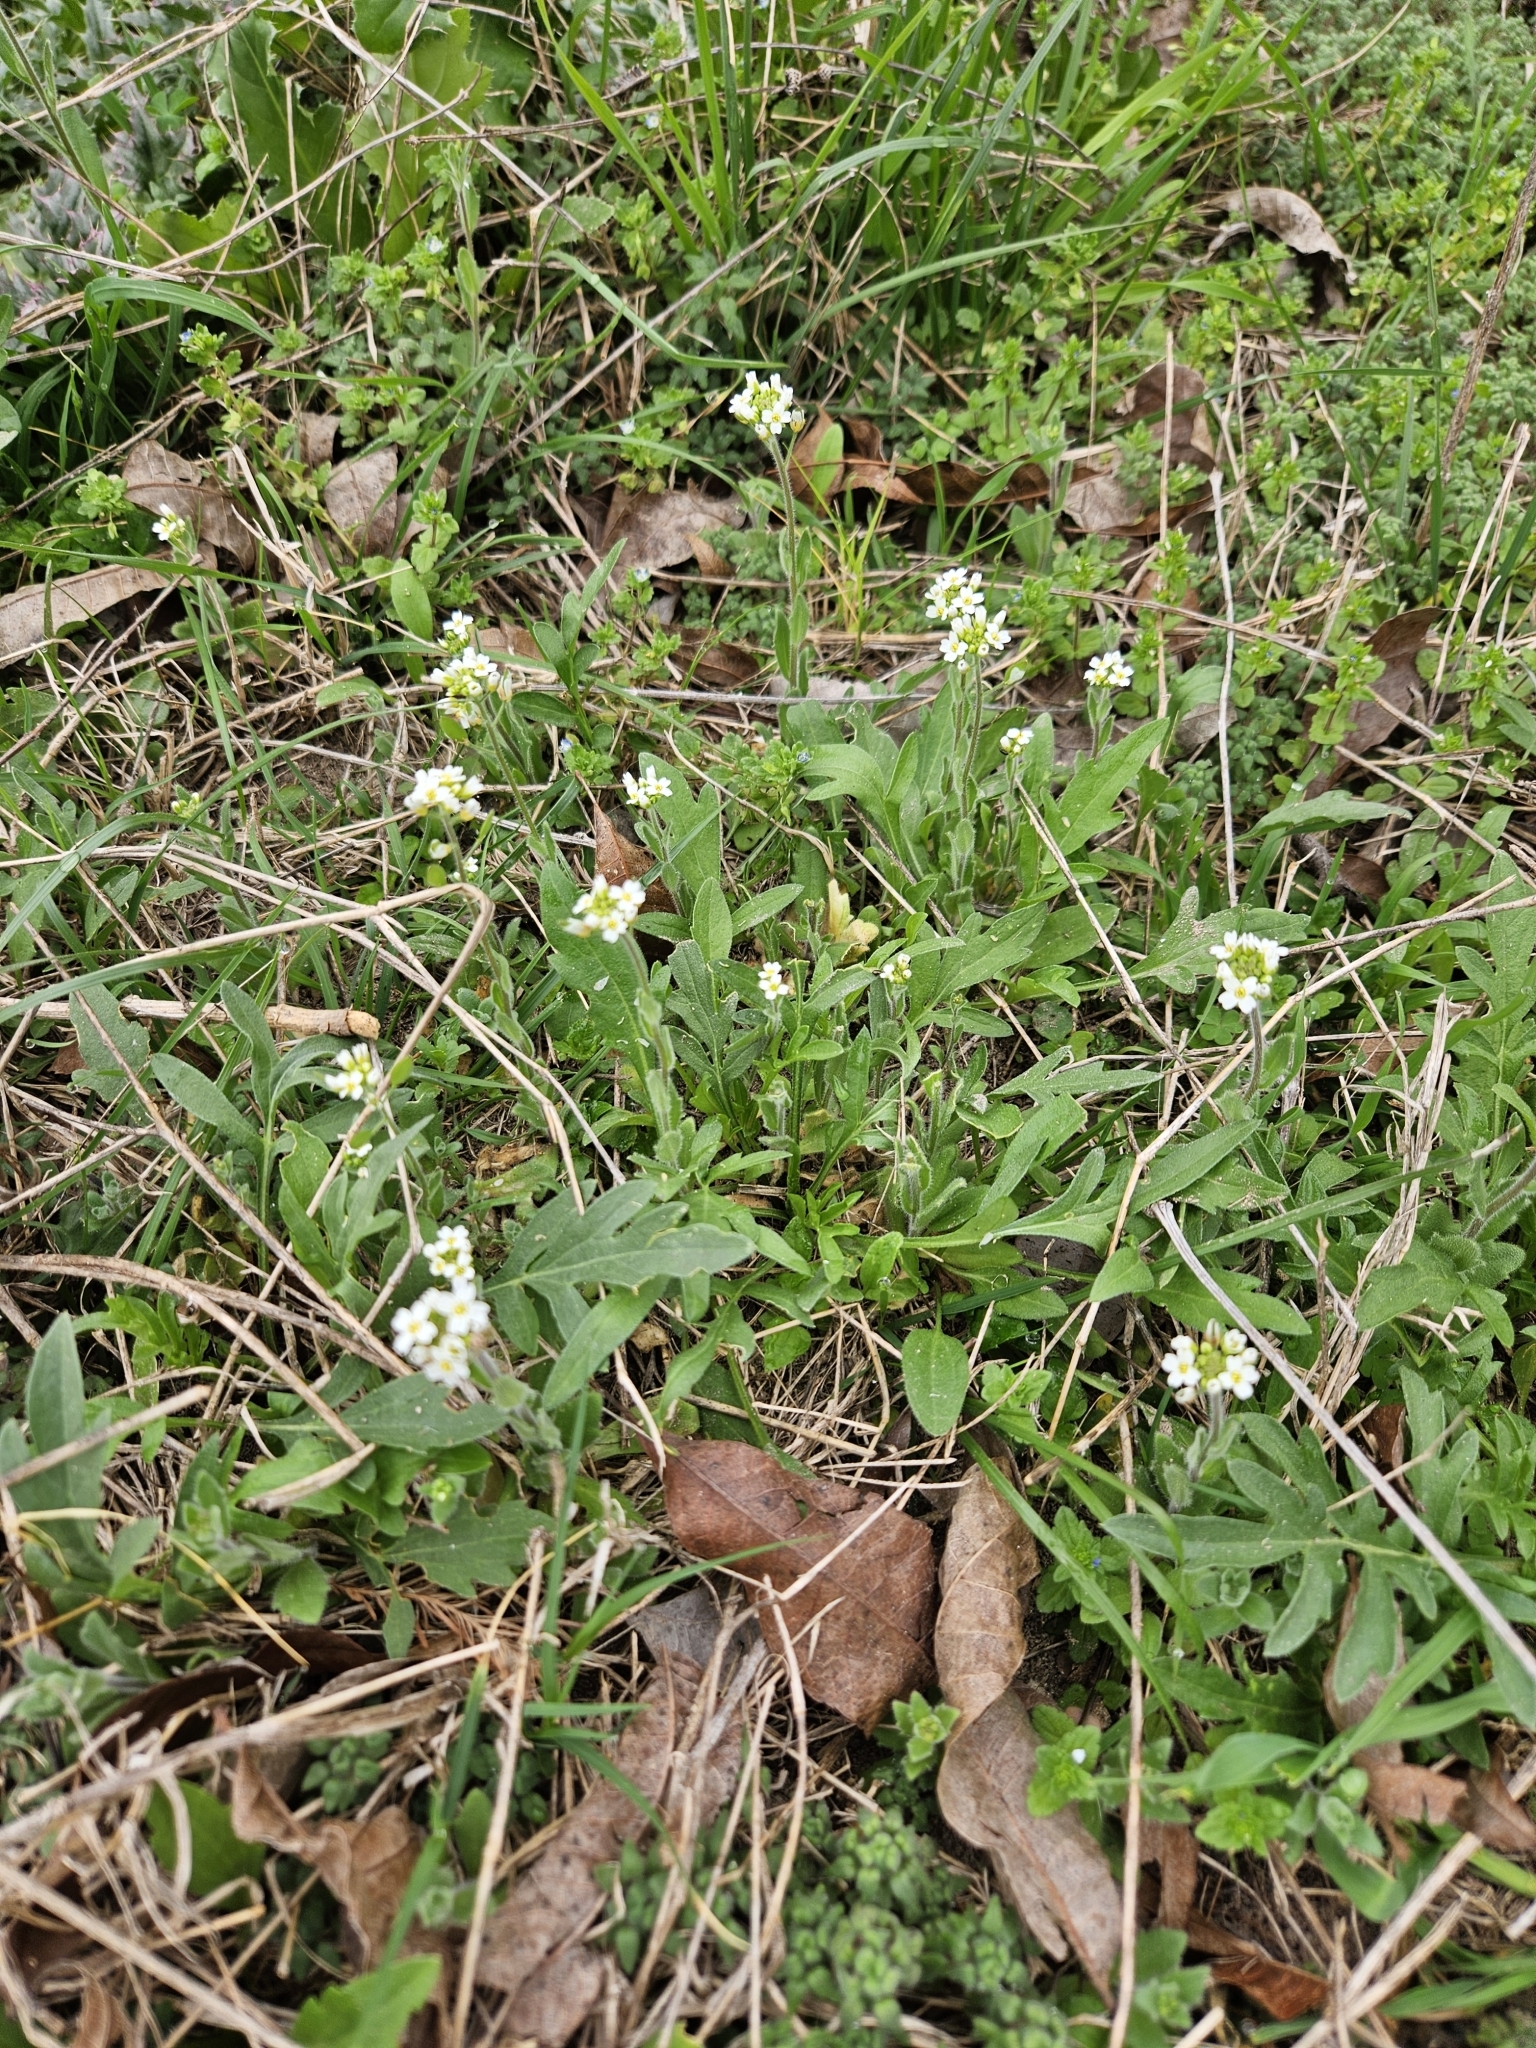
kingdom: Plantae
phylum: Tracheophyta
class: Magnoliopsida
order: Brassicales
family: Brassicaceae
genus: Tomostima
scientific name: Tomostima platycarpa
